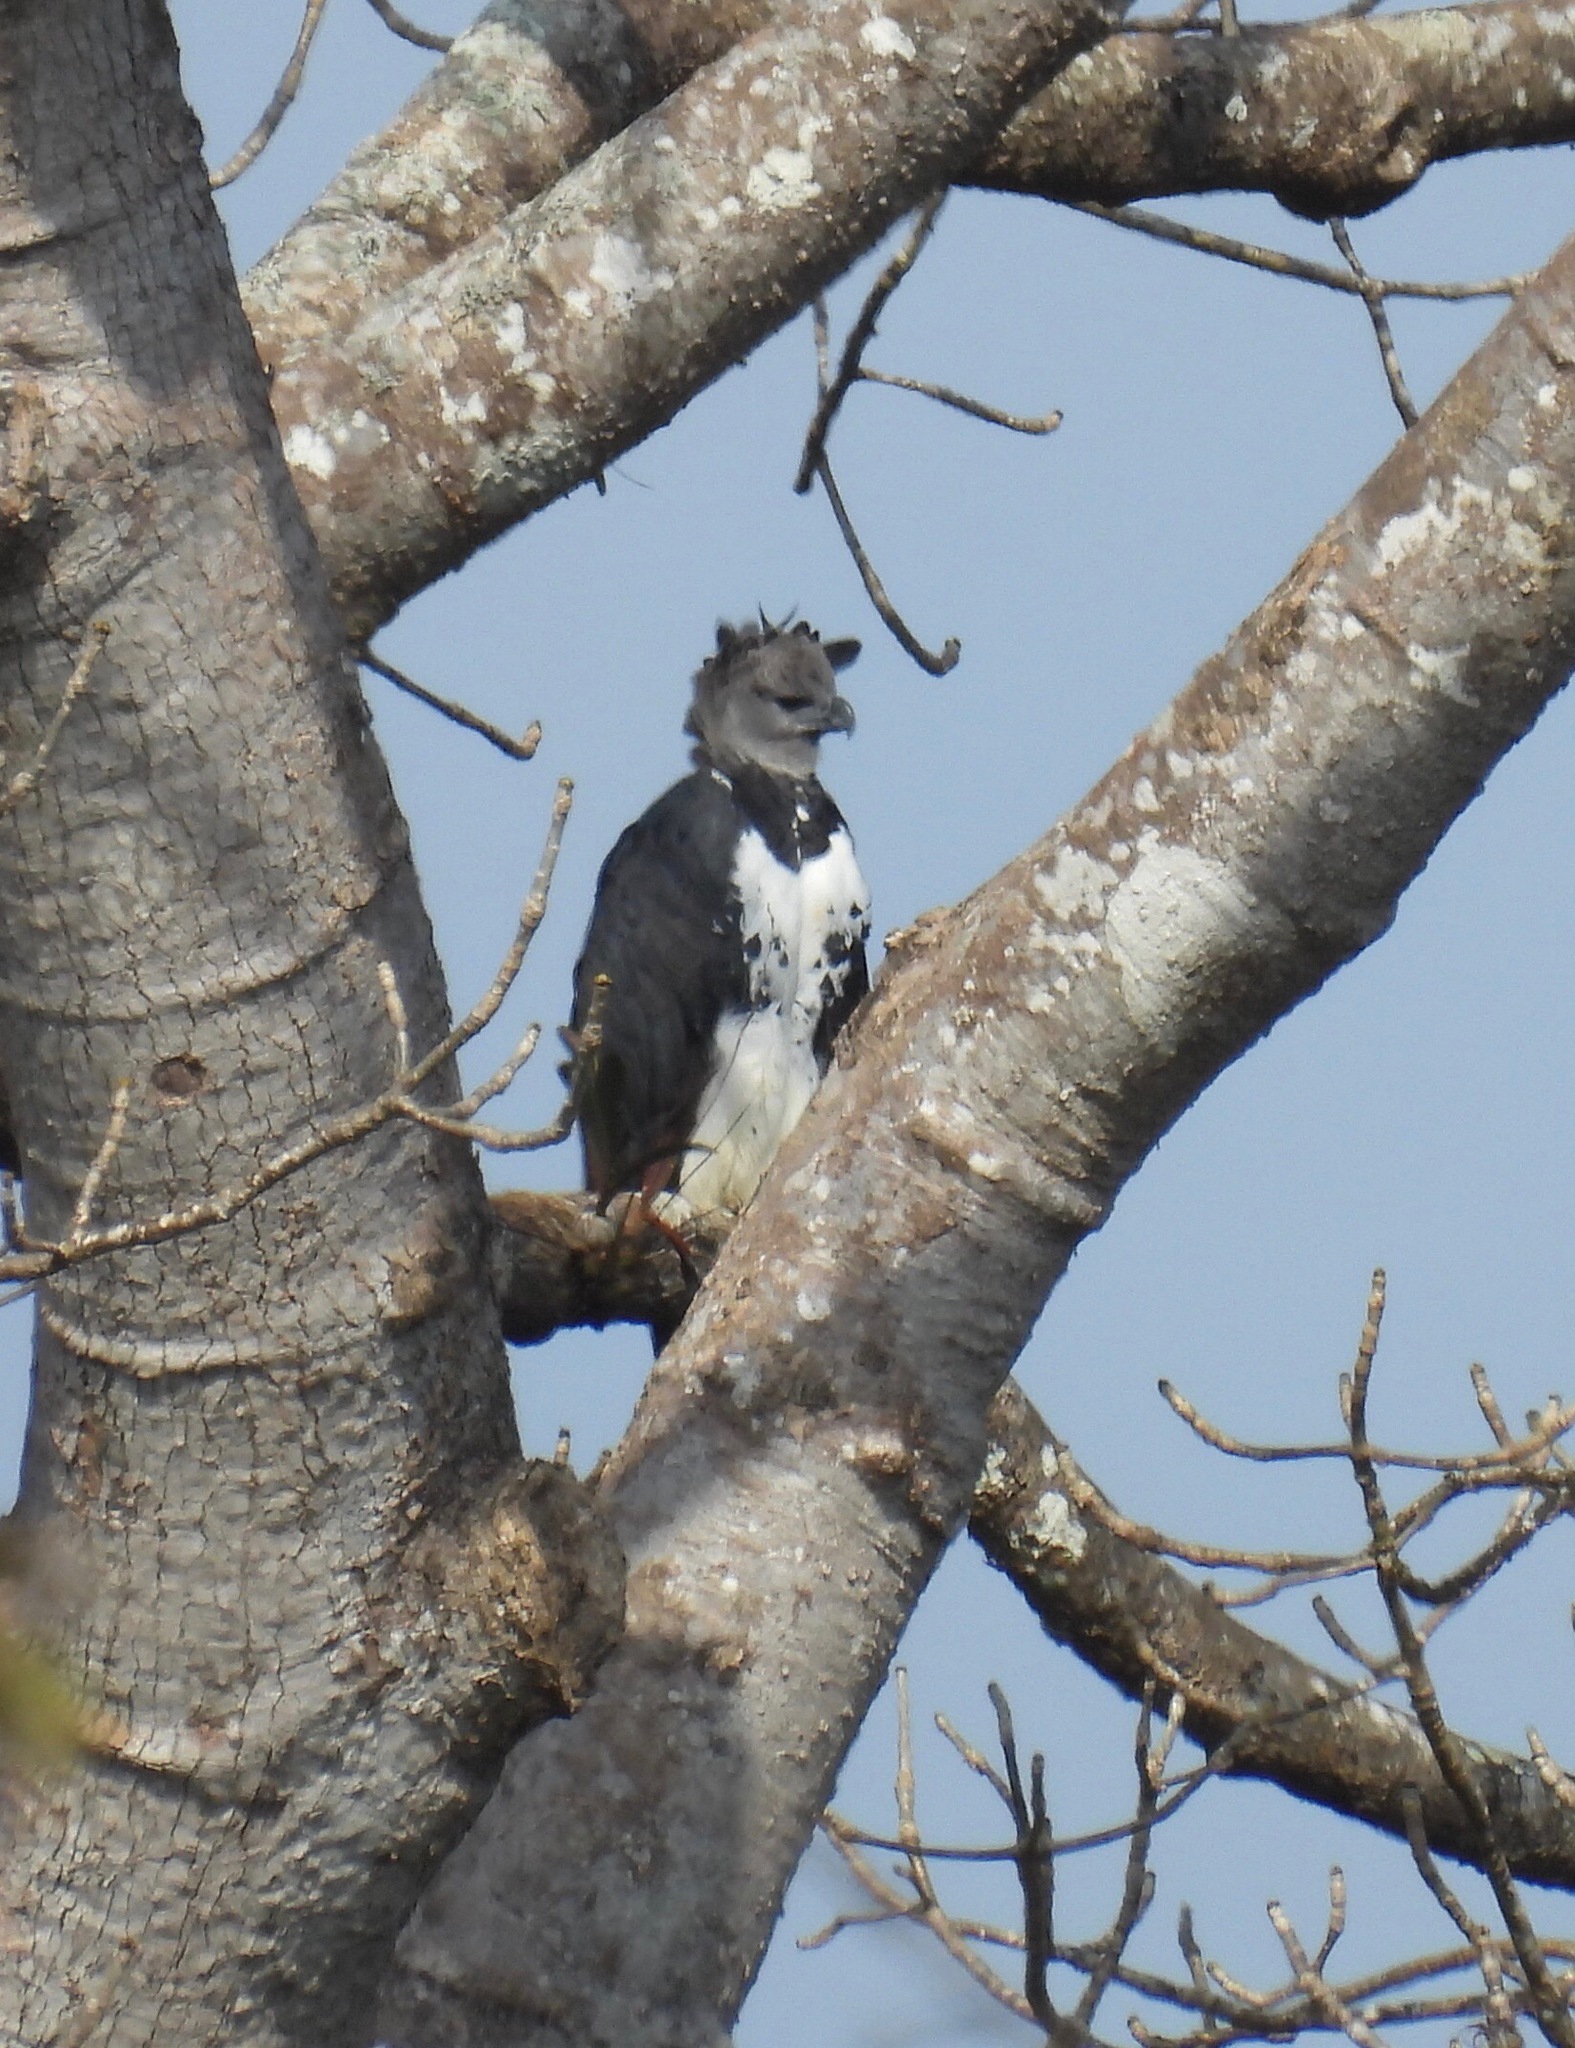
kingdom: Animalia
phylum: Chordata
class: Aves
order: Accipitriformes
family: Accipitridae
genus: Harpia
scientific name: Harpia harpyja
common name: Harpy eagle
